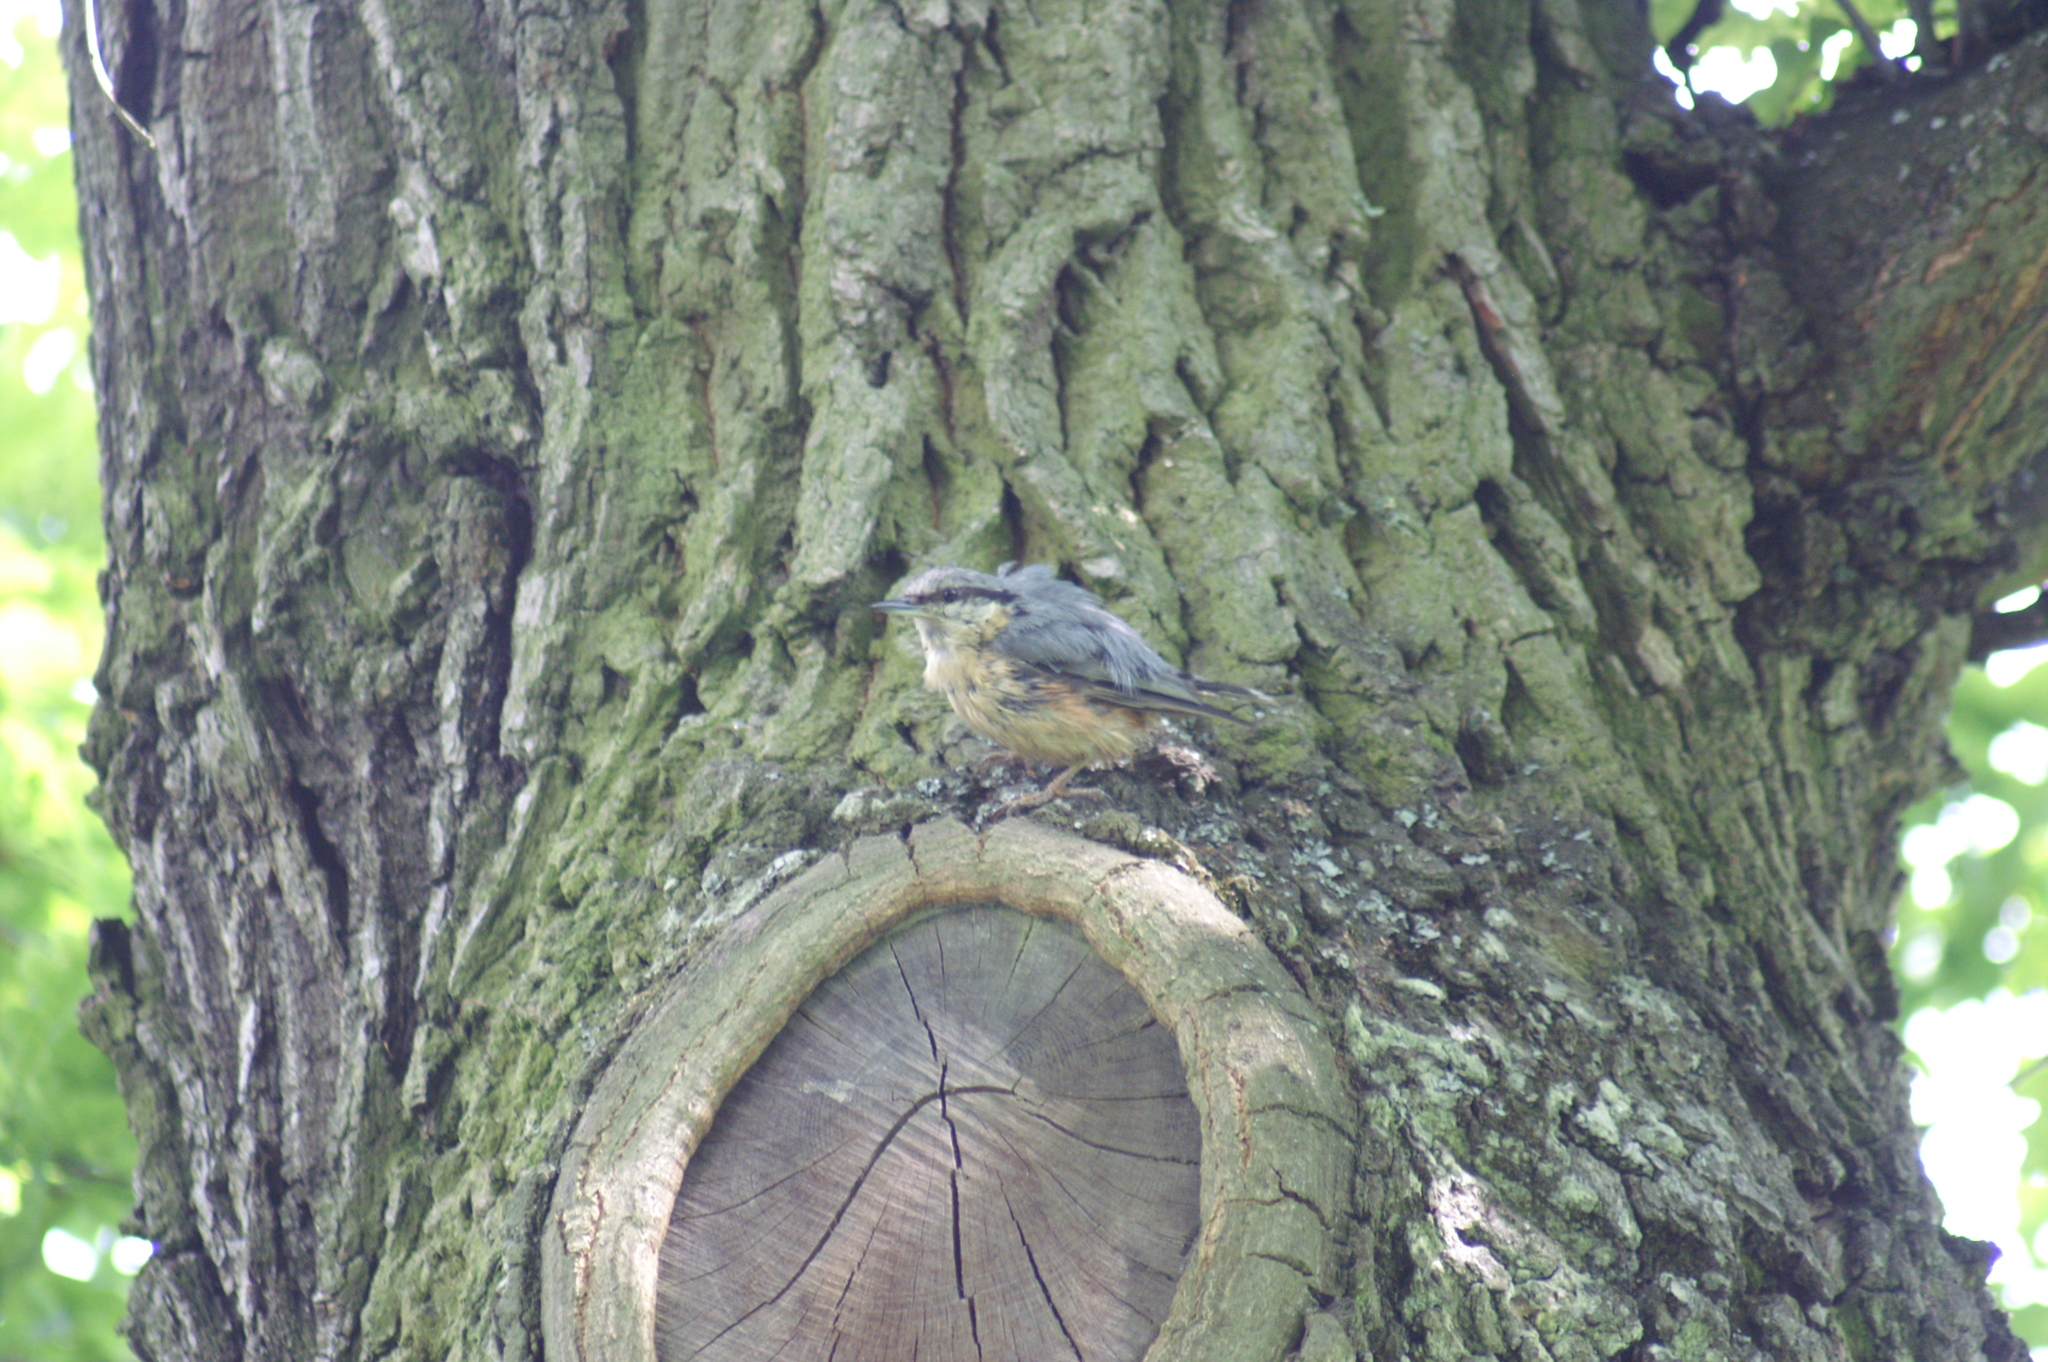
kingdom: Animalia
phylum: Chordata
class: Aves
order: Passeriformes
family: Sittidae
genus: Sitta
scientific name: Sitta europaea
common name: Eurasian nuthatch
